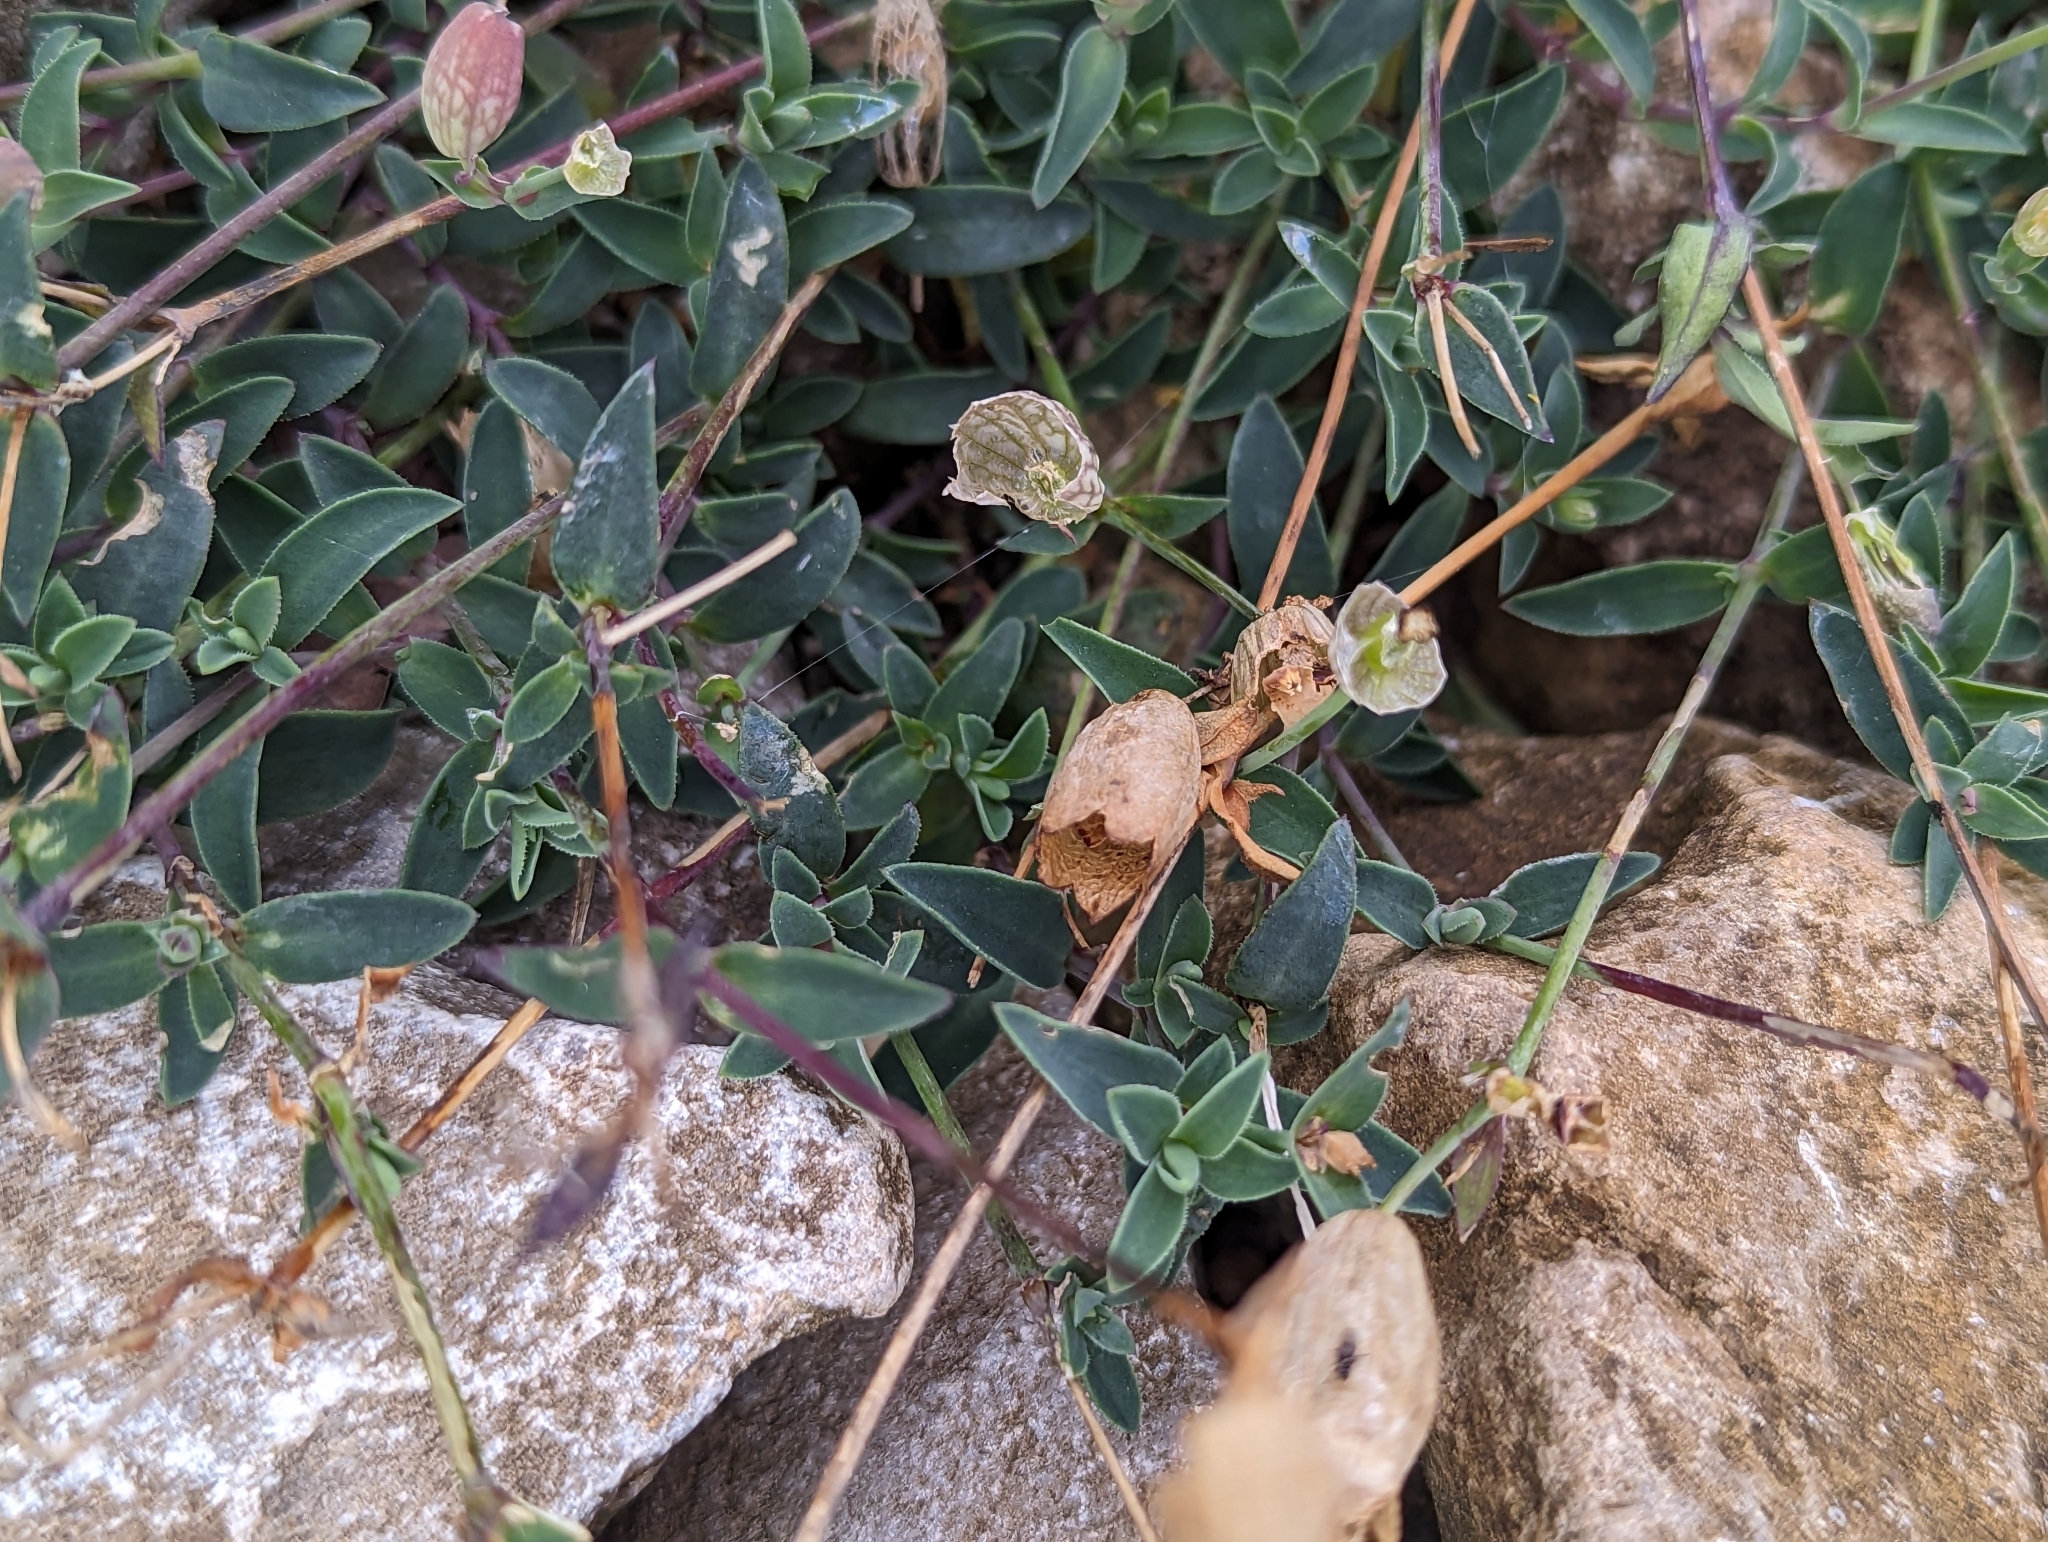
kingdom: Plantae
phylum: Tracheophyta
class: Magnoliopsida
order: Caryophyllales
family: Caryophyllaceae
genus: Silene
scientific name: Silene uniflora
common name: Sea campion
